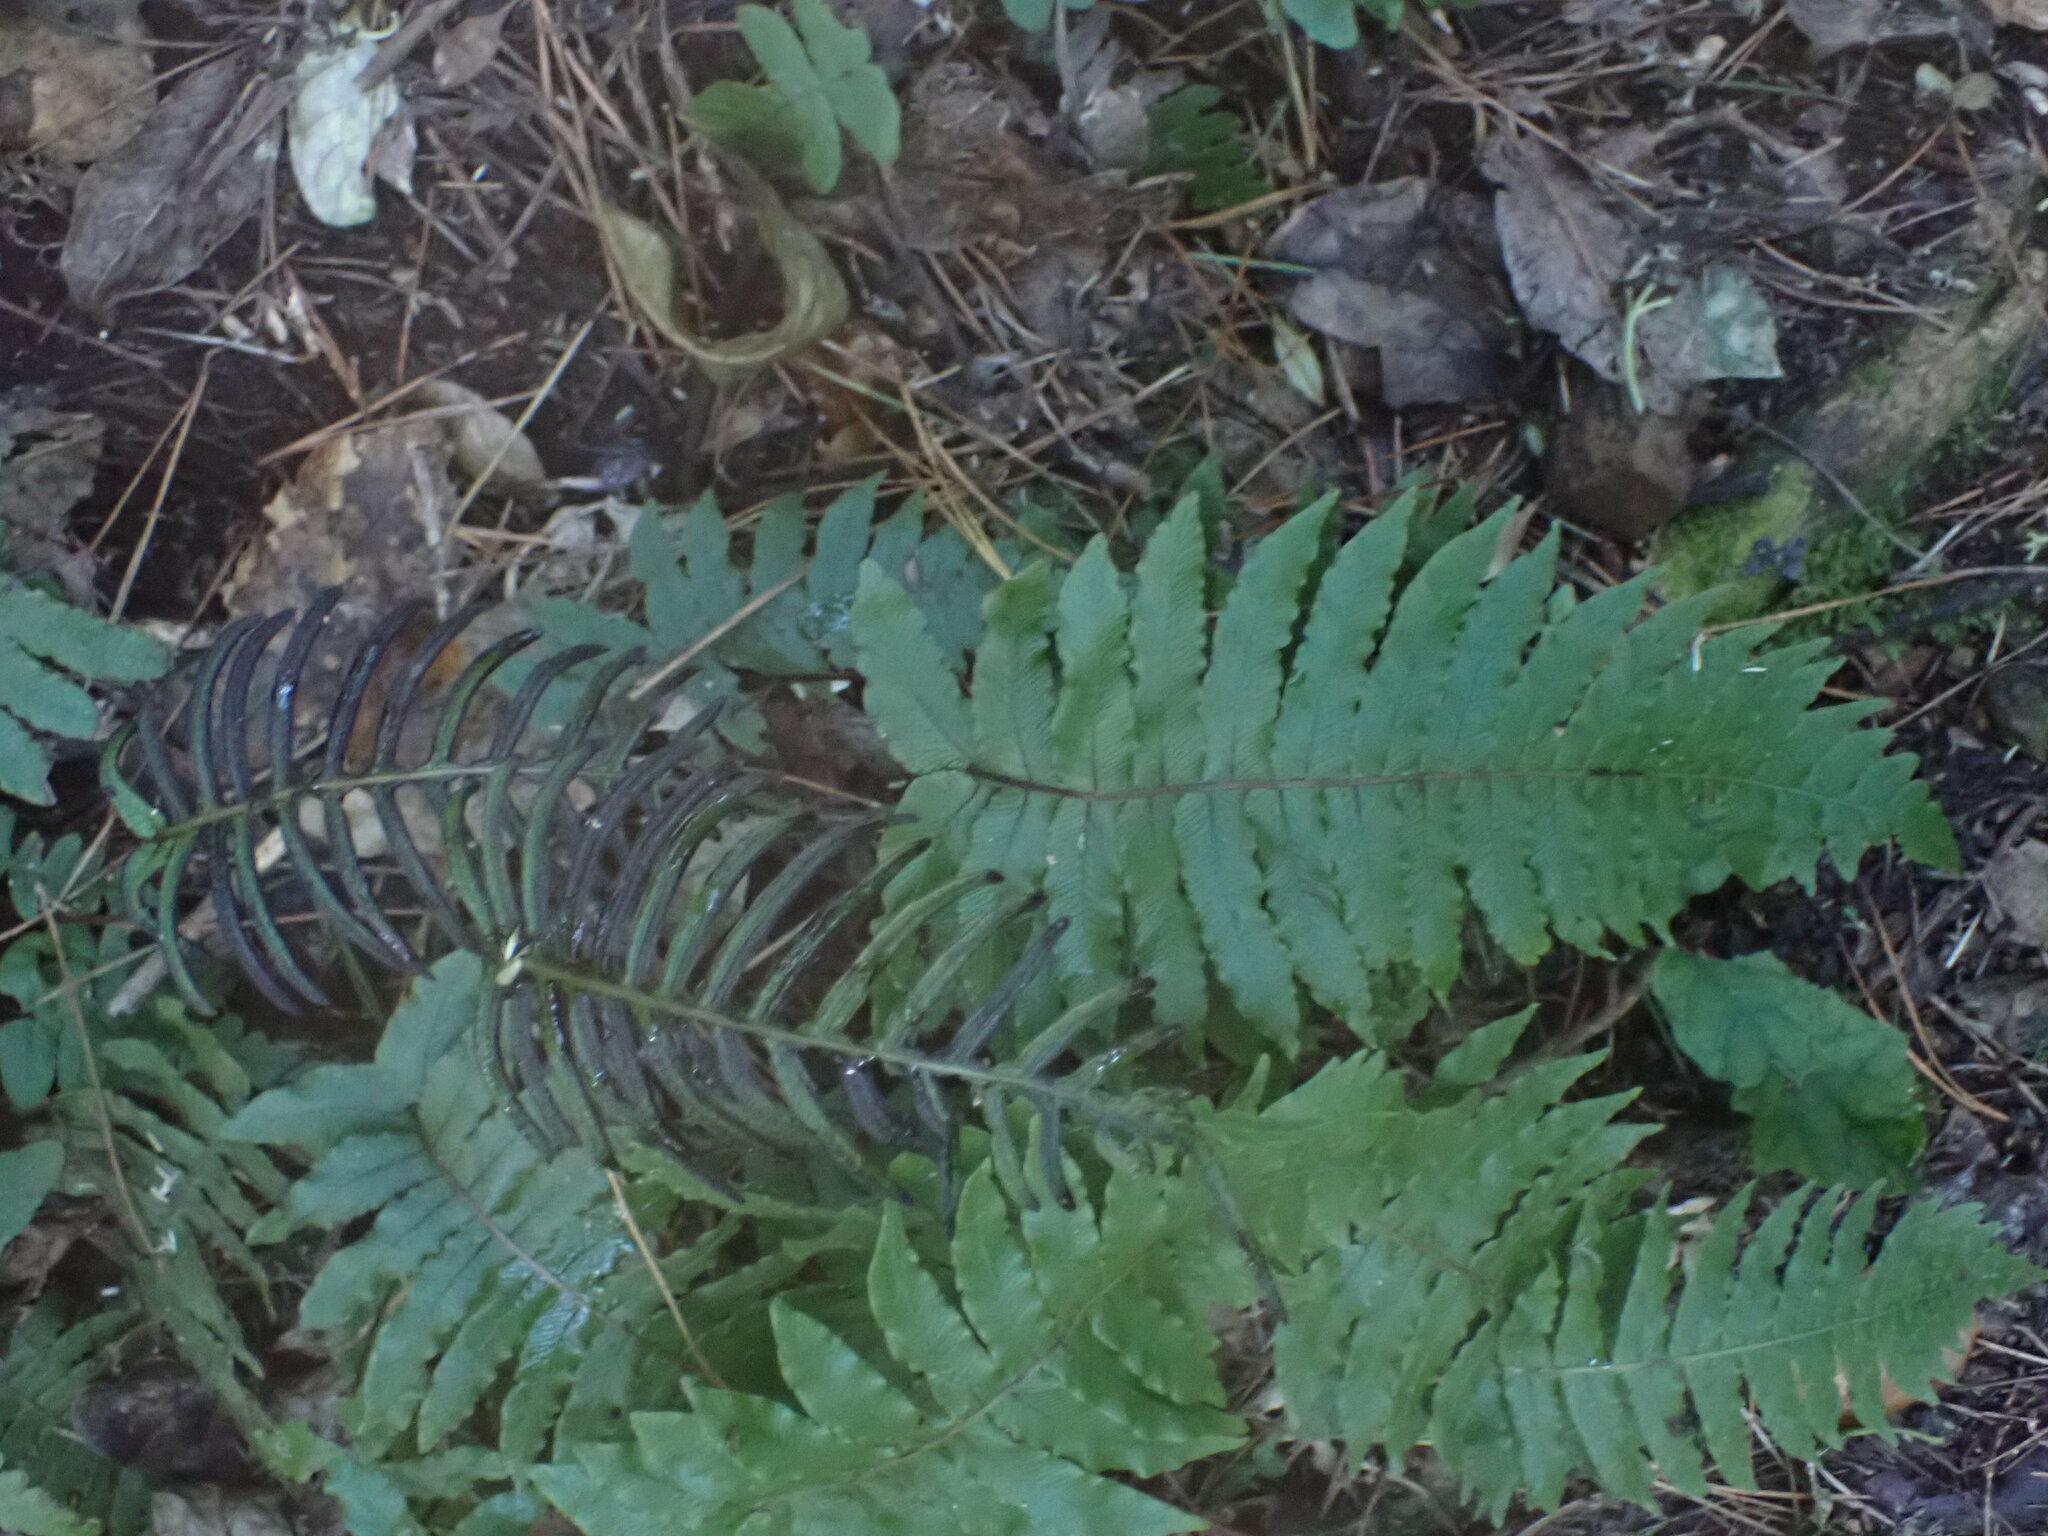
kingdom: Plantae
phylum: Tracheophyta
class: Polypodiopsida
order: Polypodiales
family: Blechnaceae
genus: Cranfillia
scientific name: Cranfillia deltoides
